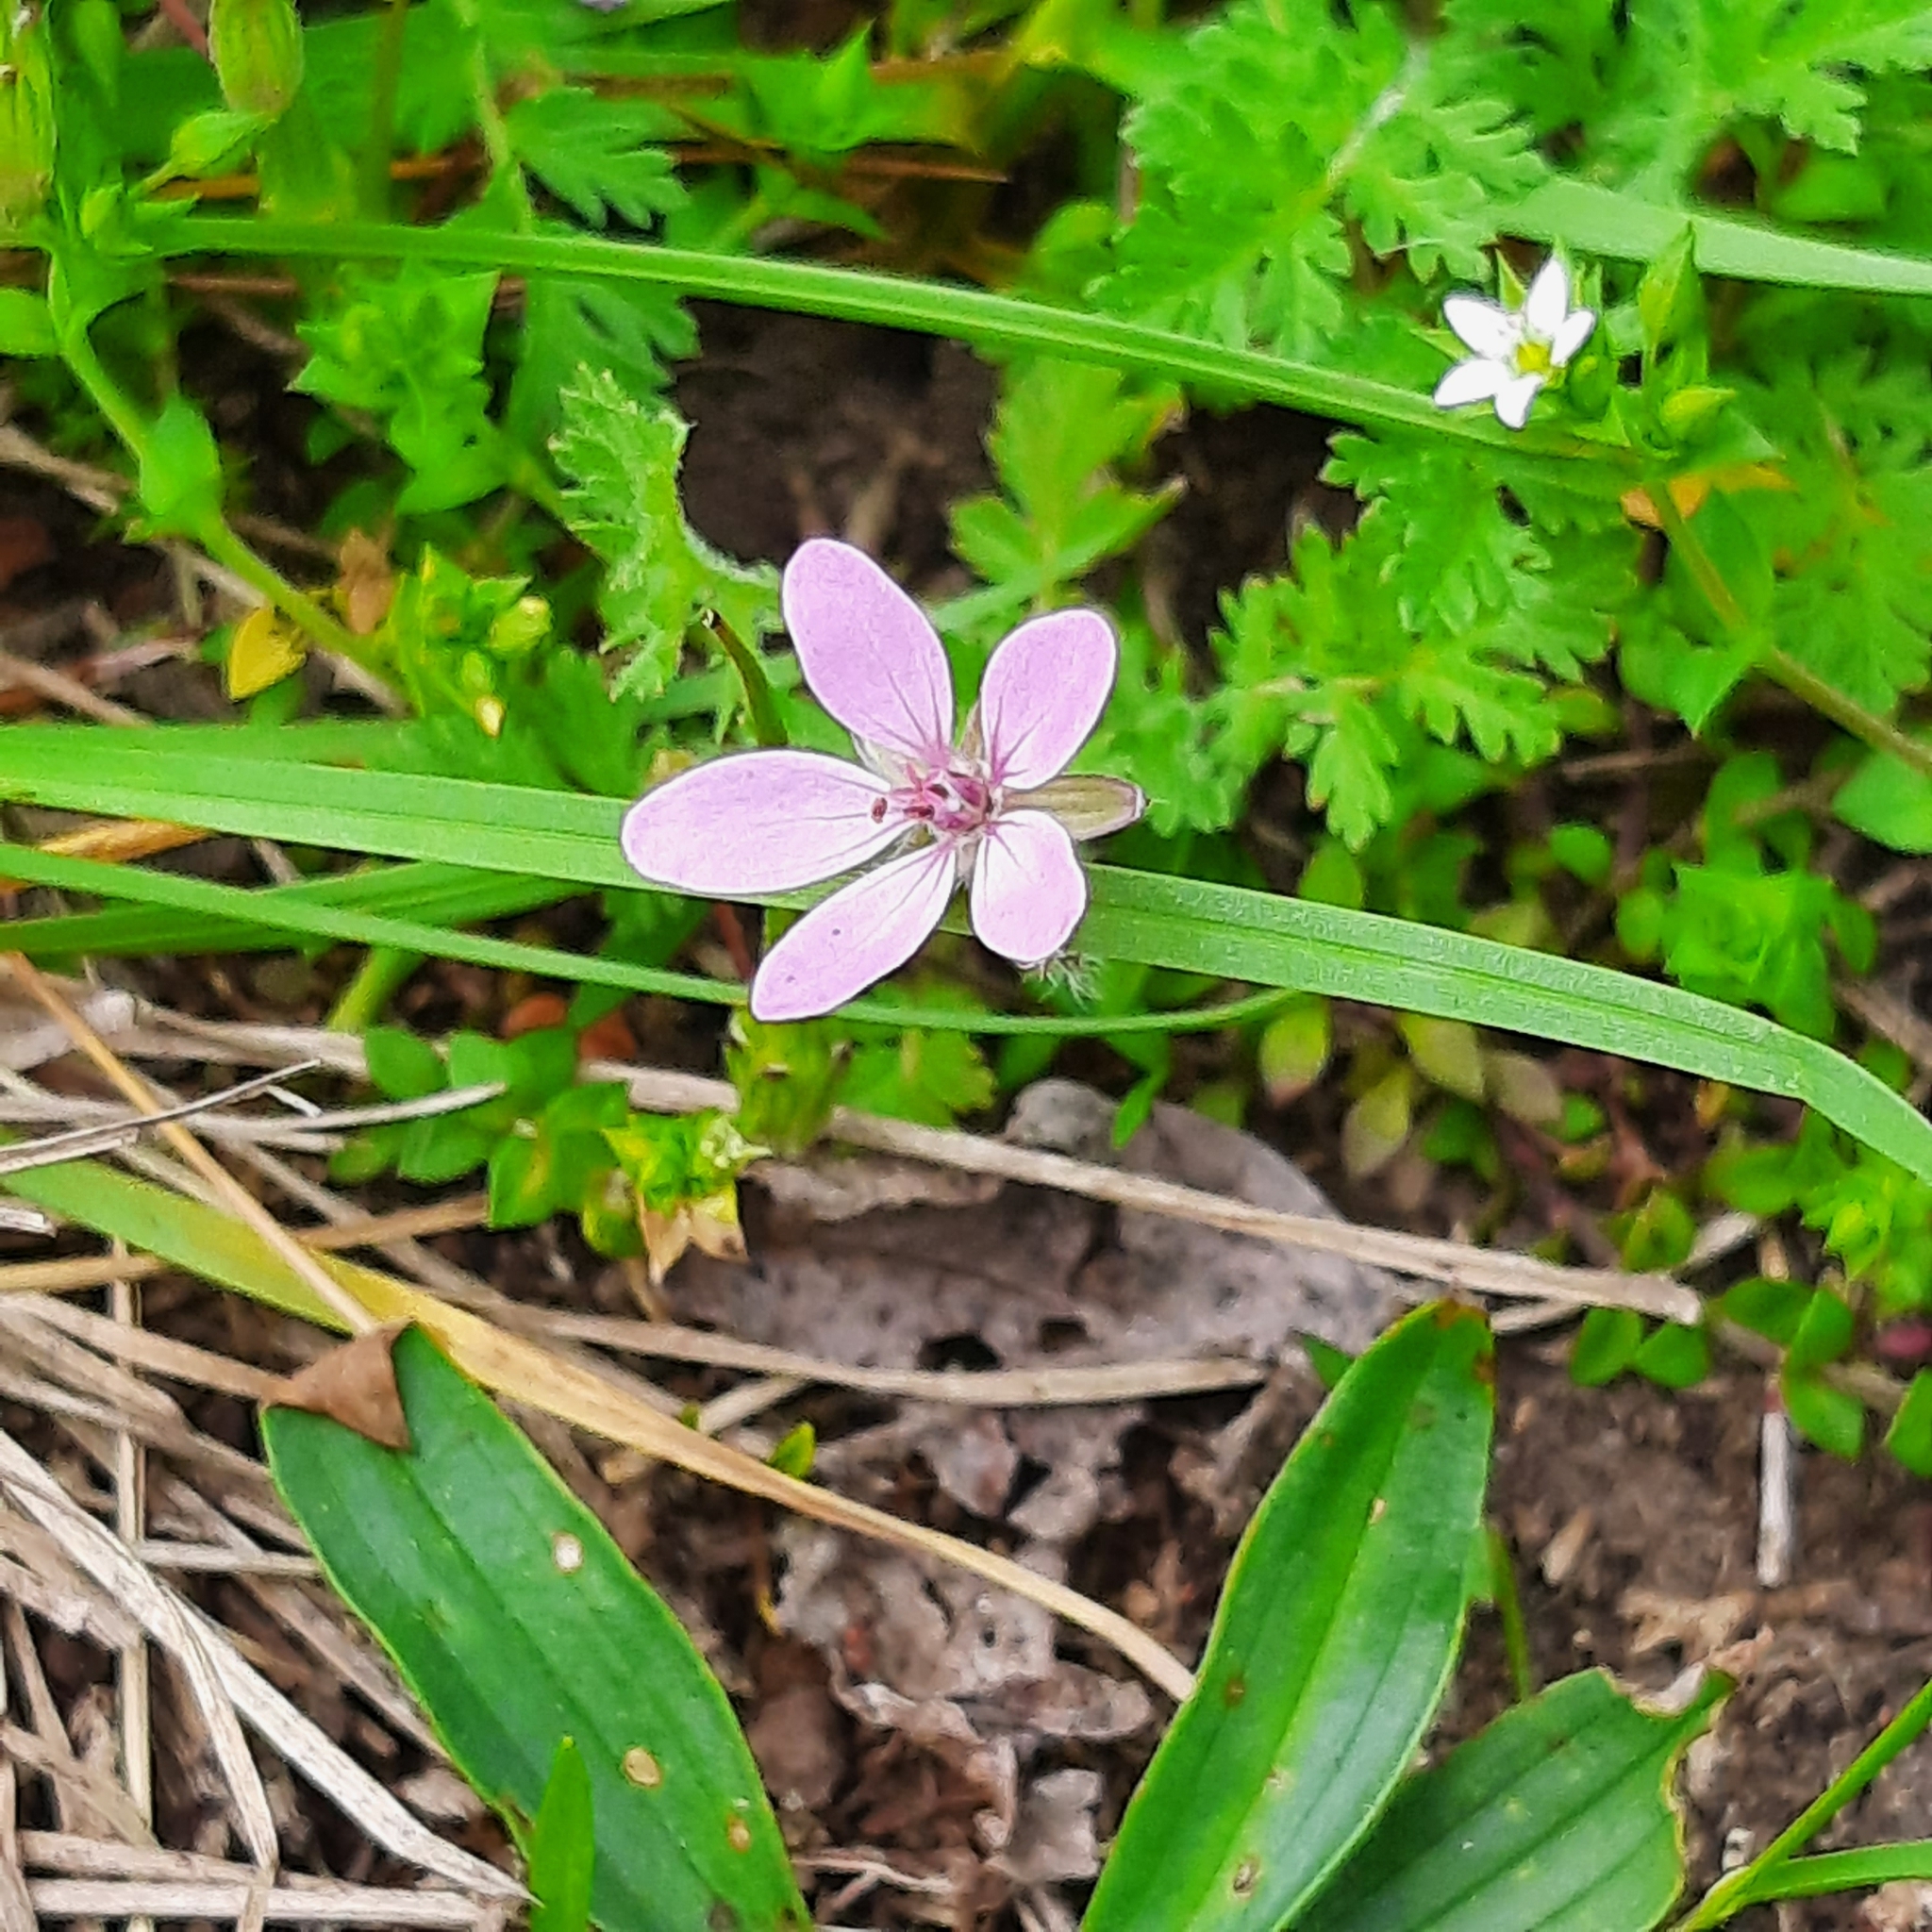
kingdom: Plantae
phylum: Tracheophyta
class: Magnoliopsida
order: Geraniales
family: Geraniaceae
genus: Erodium
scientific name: Erodium cicutarium
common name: Common stork's-bill
